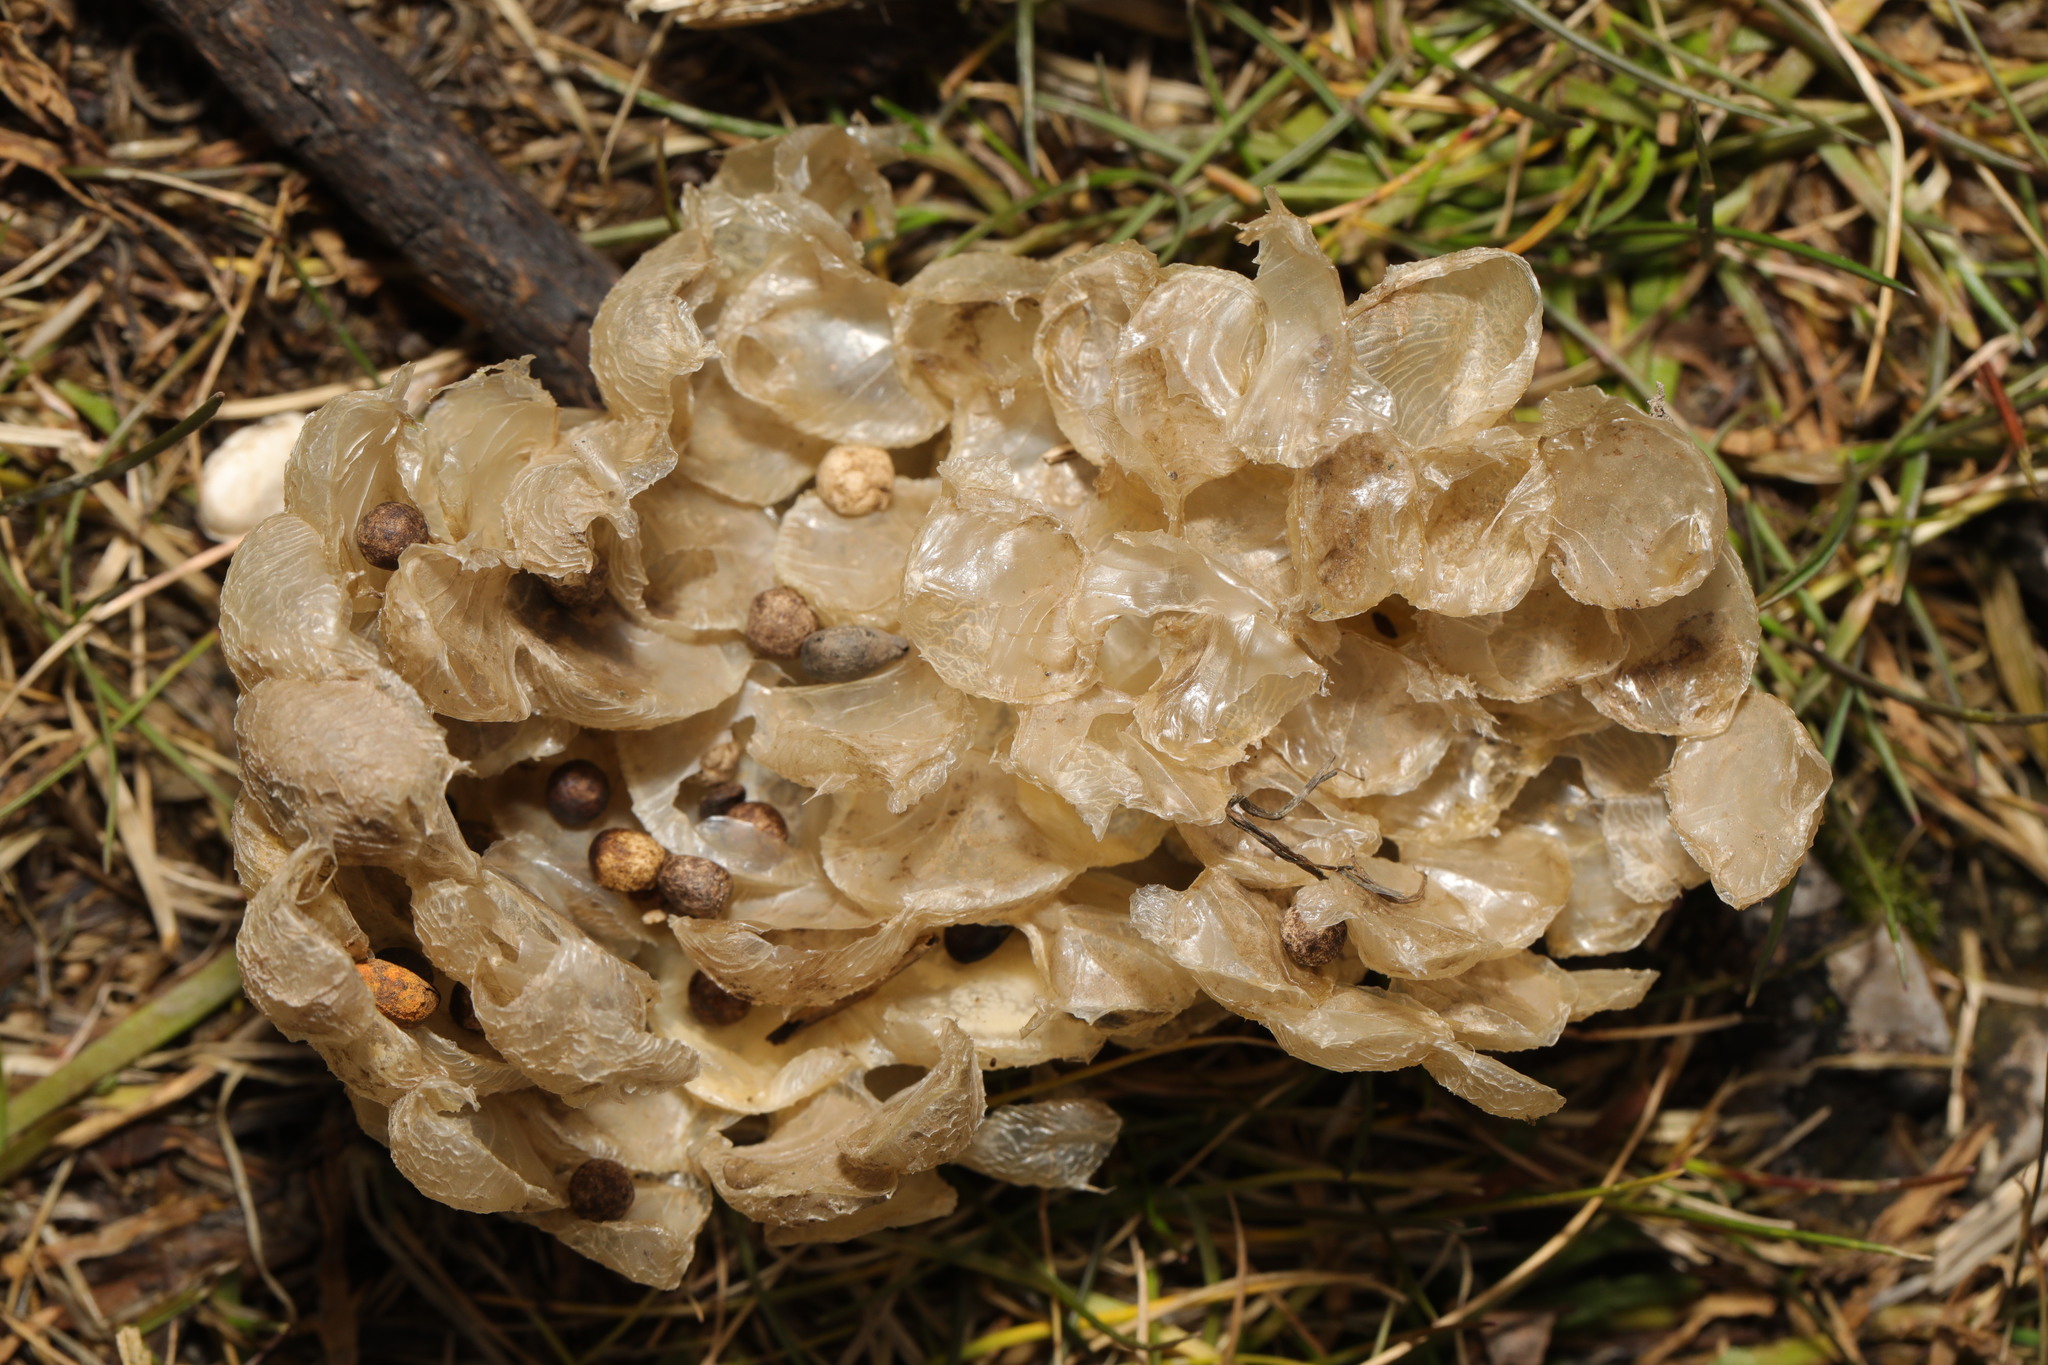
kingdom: Animalia
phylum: Mollusca
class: Gastropoda
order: Neogastropoda
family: Buccinidae
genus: Buccinum
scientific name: Buccinum undatum
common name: Common whelk
